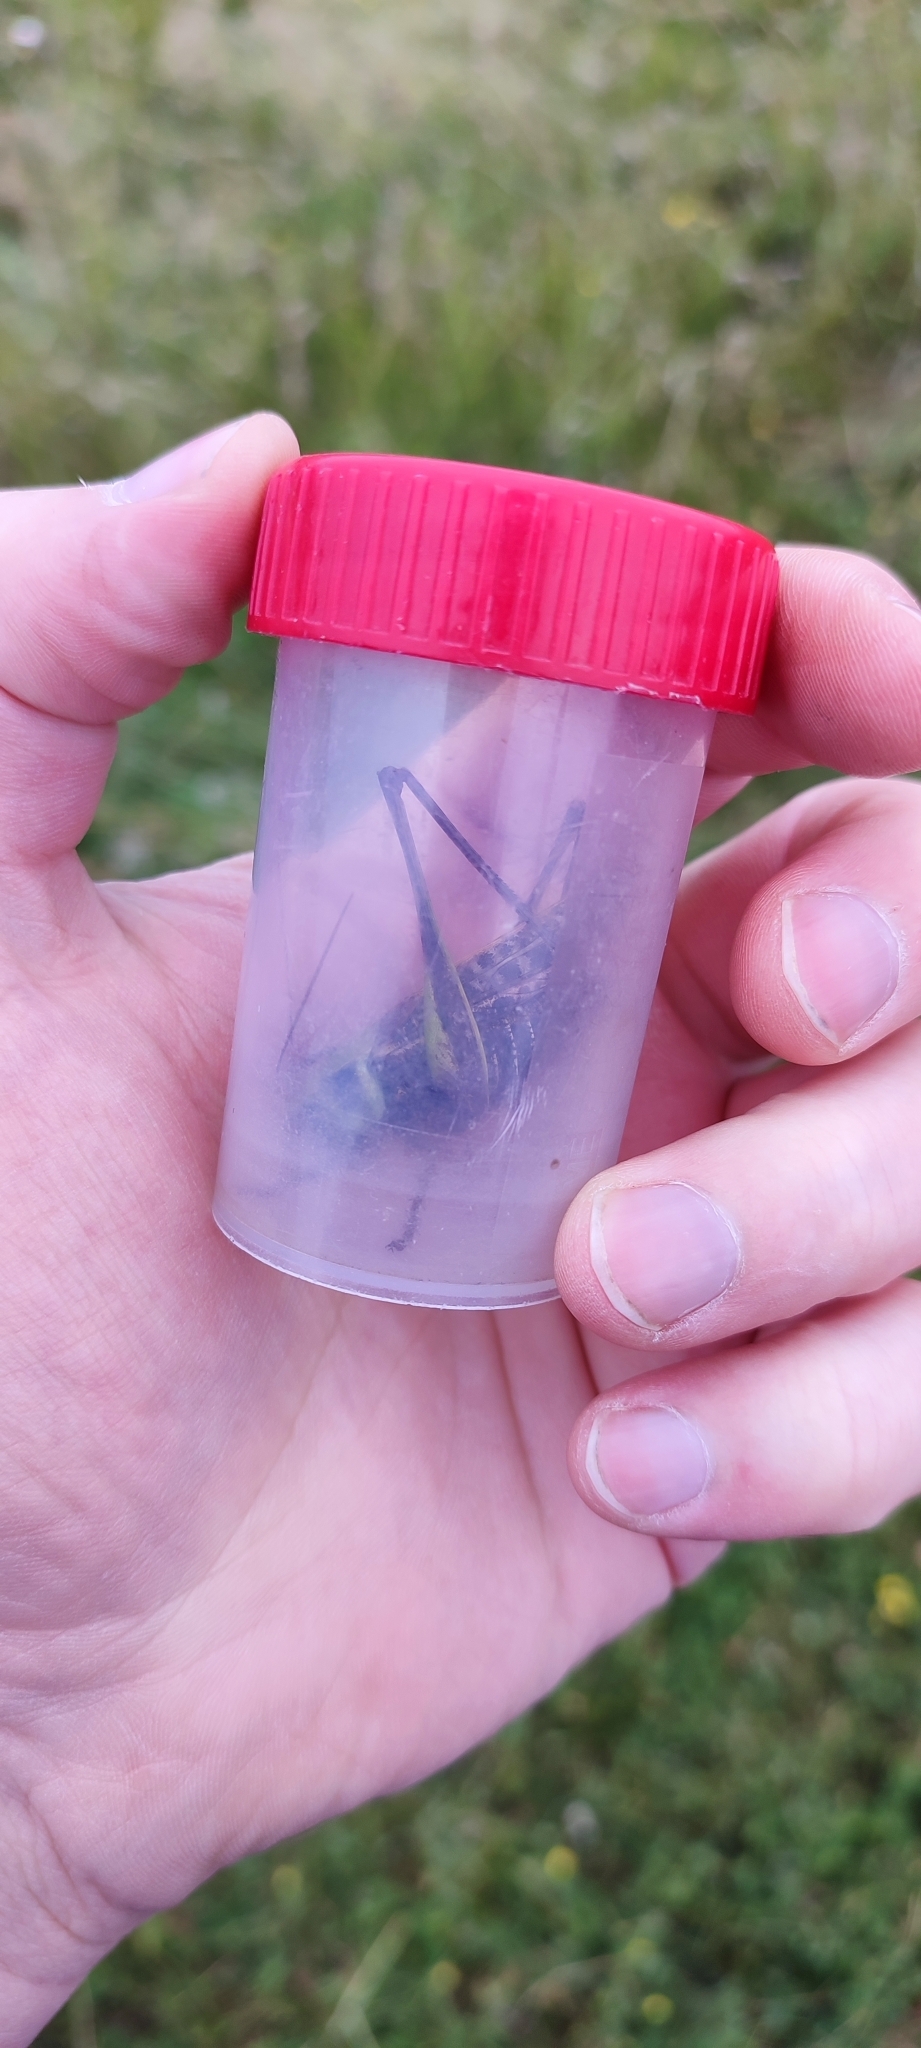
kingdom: Animalia
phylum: Arthropoda
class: Insecta
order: Orthoptera
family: Tettigoniidae
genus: Decticus
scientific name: Decticus verrucivorus
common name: Wart-biter
